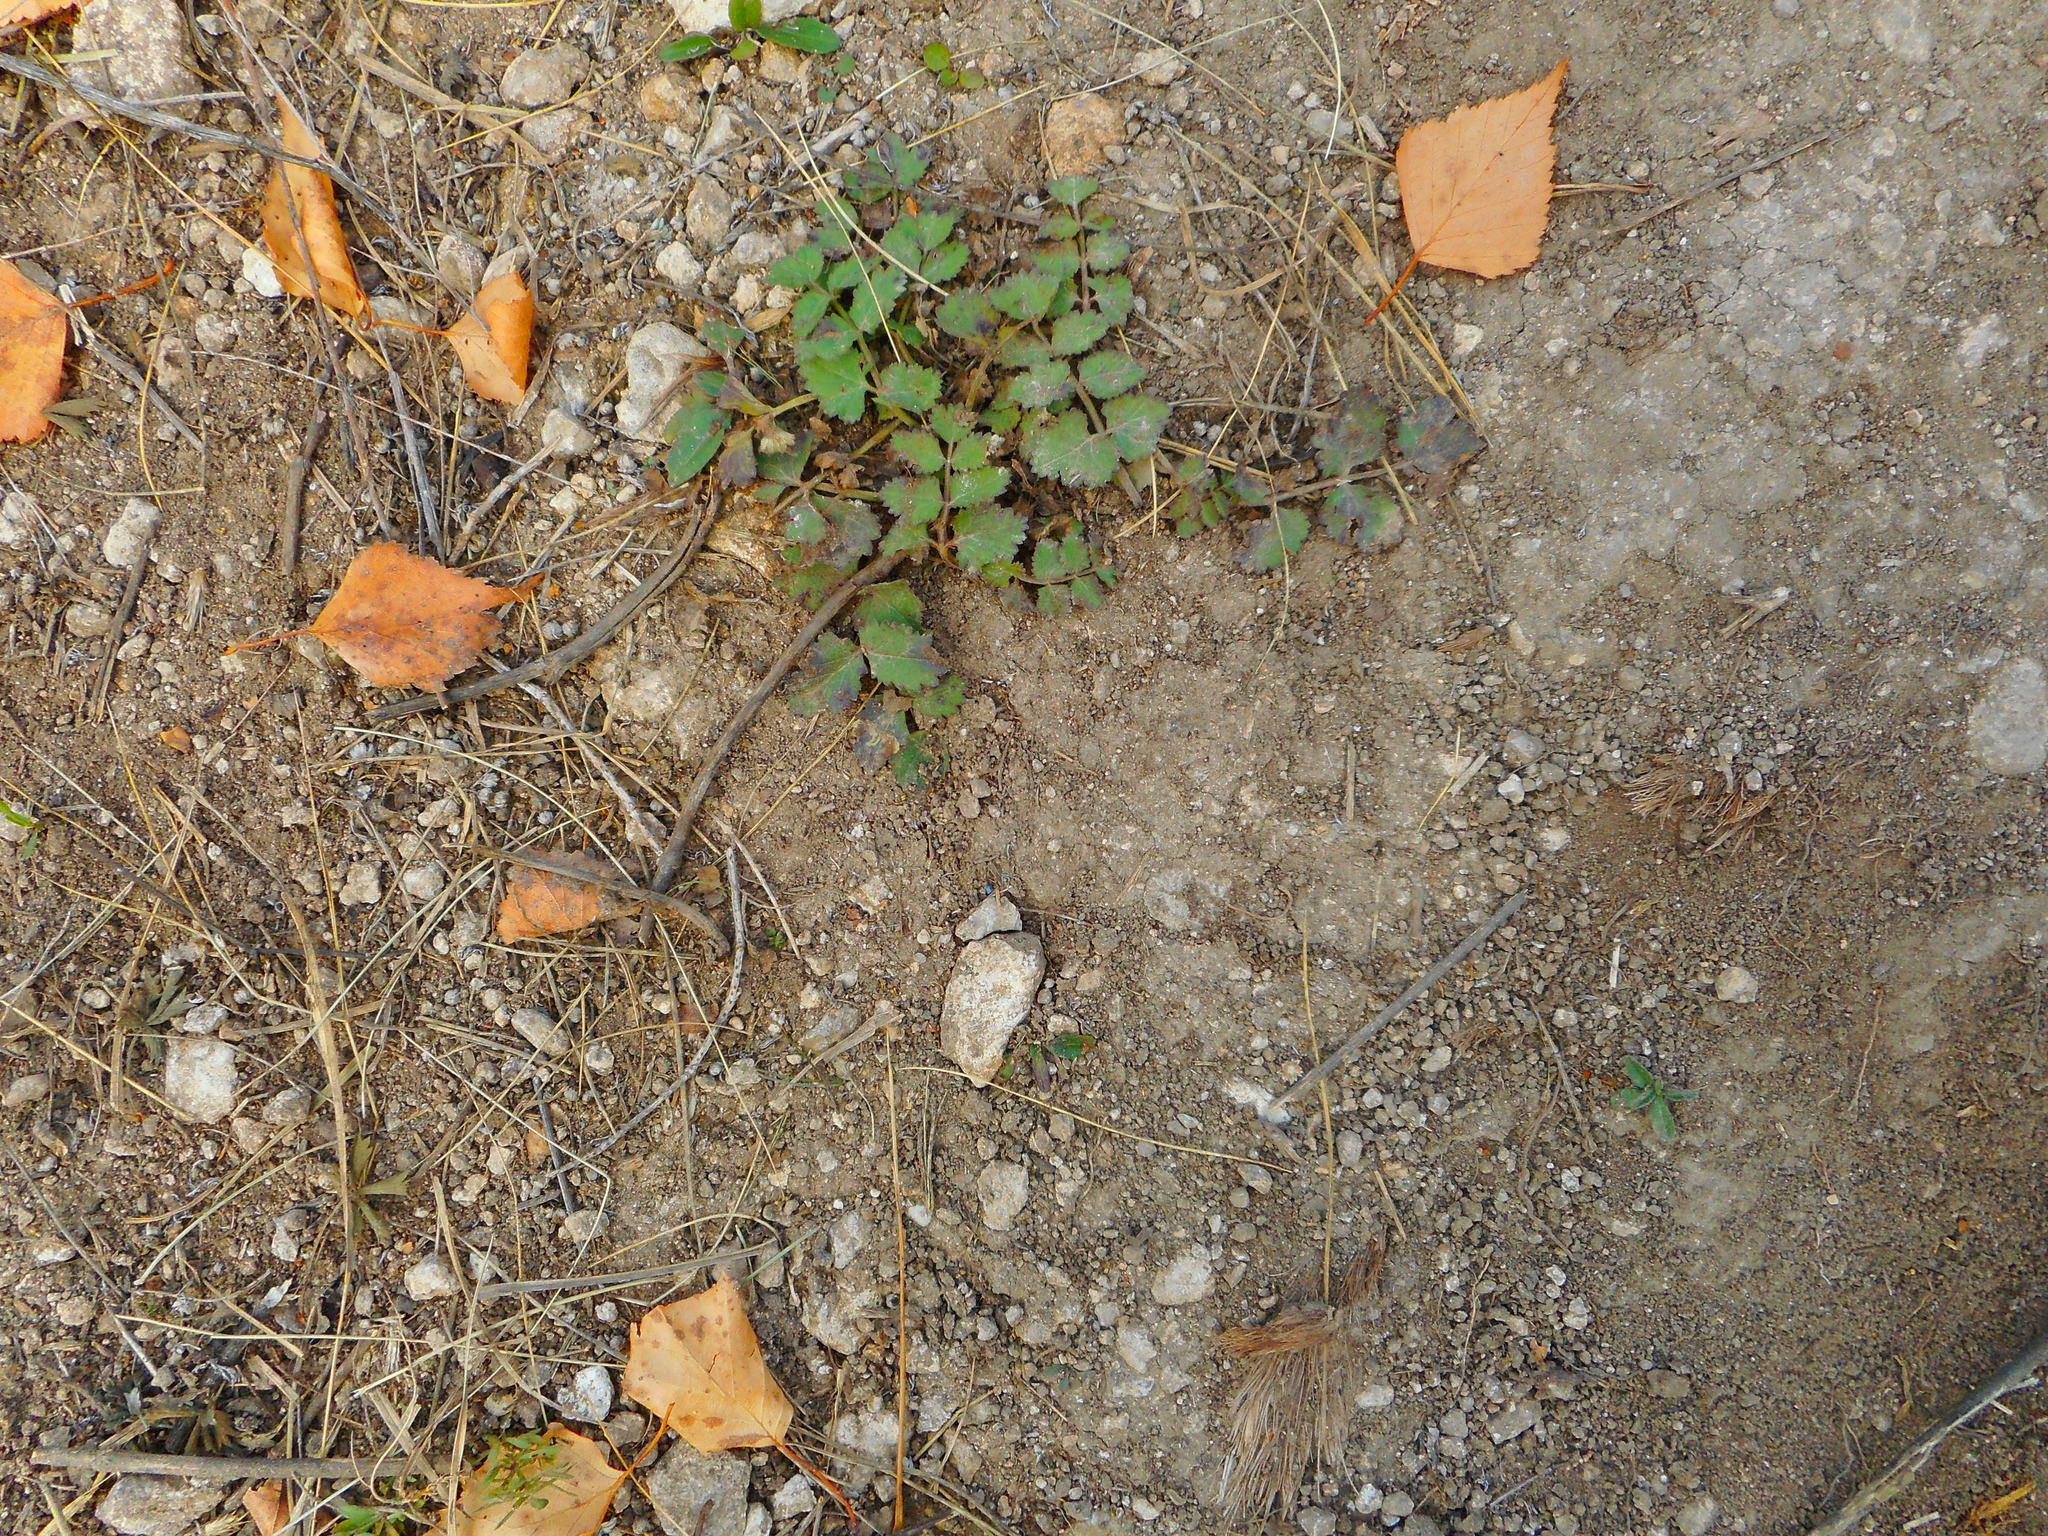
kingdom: Plantae
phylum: Tracheophyta
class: Magnoliopsida
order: Apiales
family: Apiaceae
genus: Pimpinella
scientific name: Pimpinella saxifraga
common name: Burnet-saxifrage
